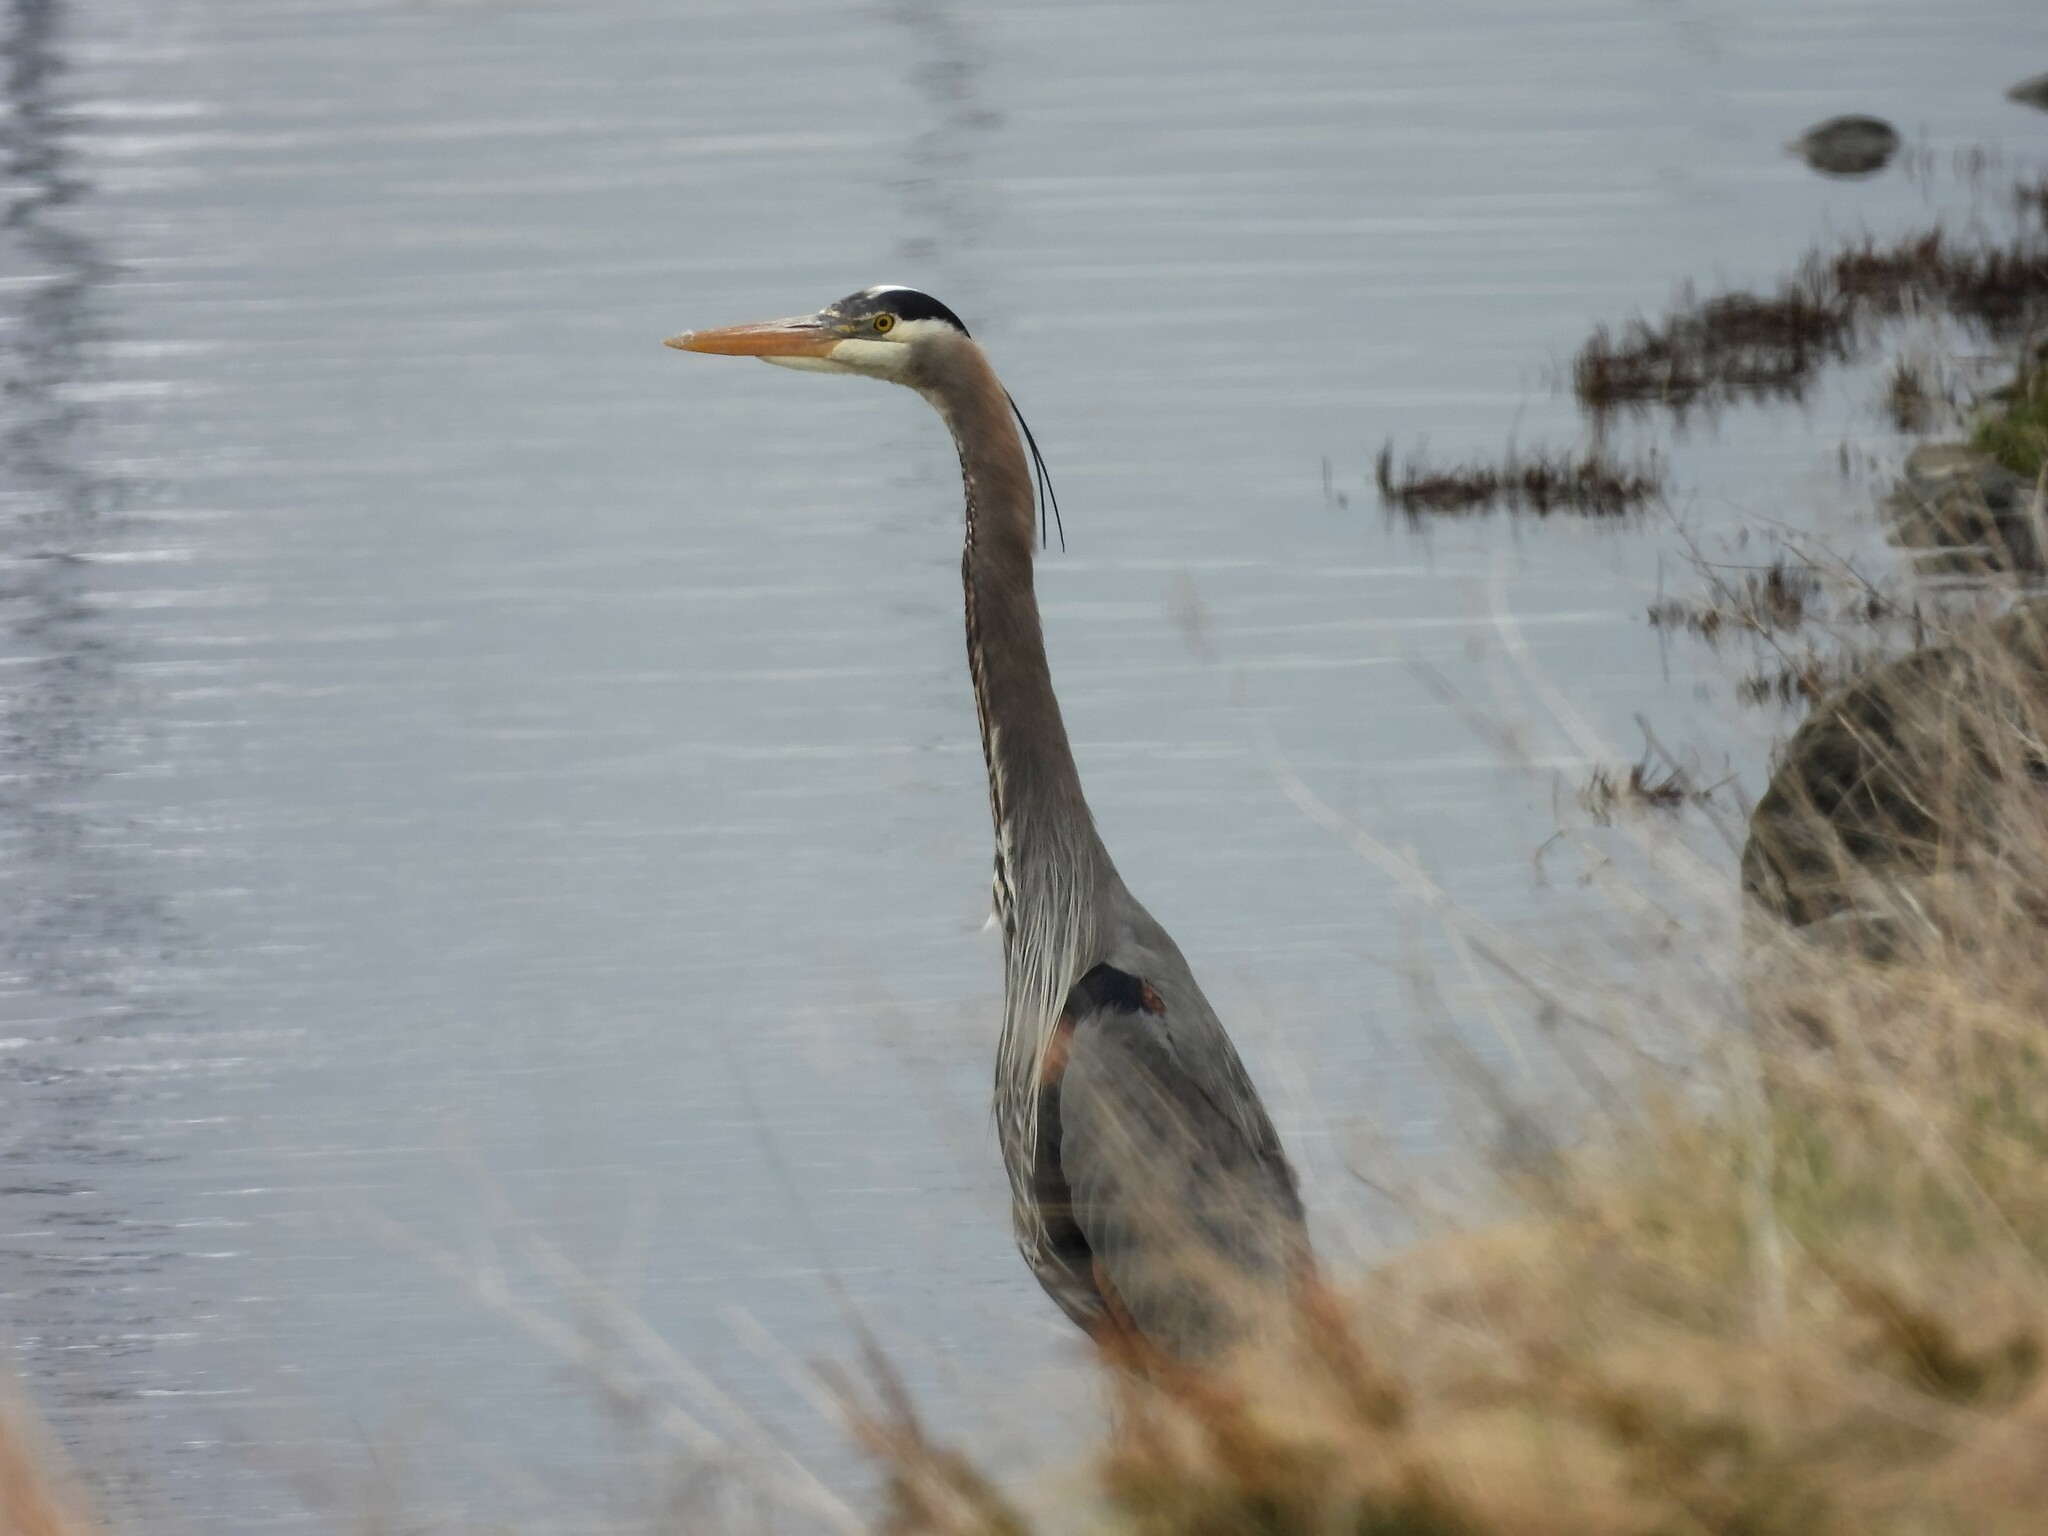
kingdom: Animalia
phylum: Chordata
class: Aves
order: Pelecaniformes
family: Ardeidae
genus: Ardea
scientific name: Ardea herodias
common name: Great blue heron
